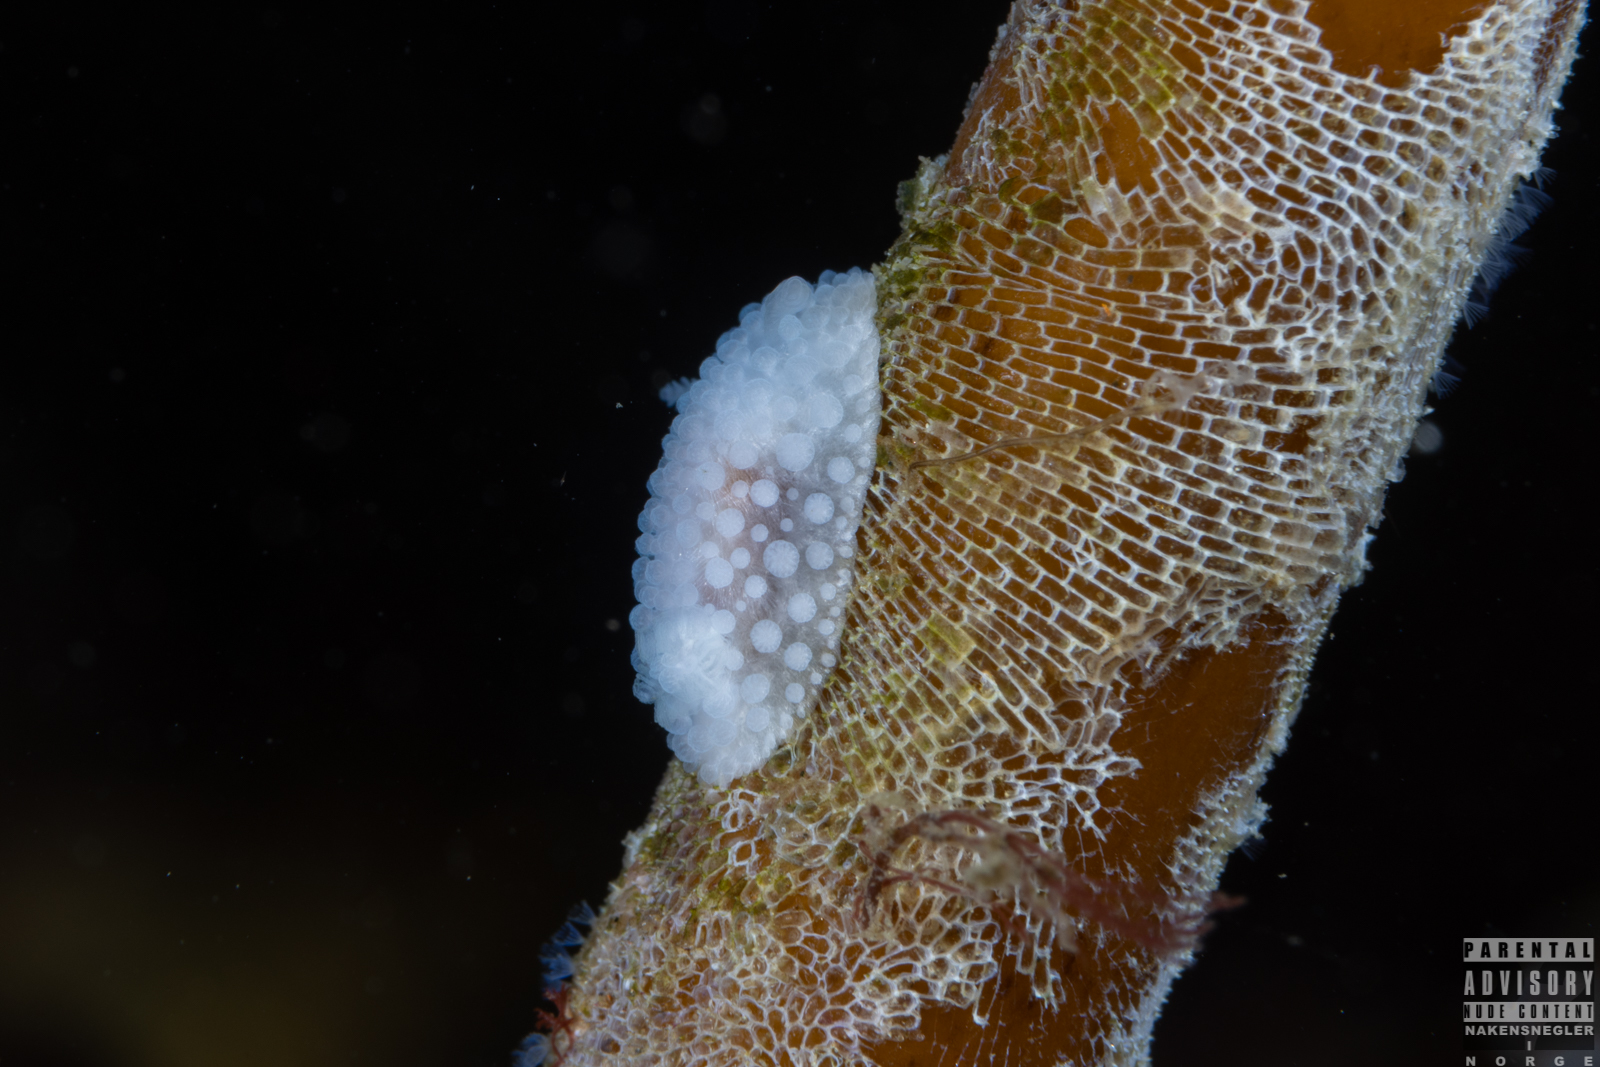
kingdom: Animalia
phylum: Mollusca
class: Gastropoda
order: Nudibranchia
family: Onchidorididae
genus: Onchidoris
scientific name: Onchidoris muricata
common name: Rough doris
